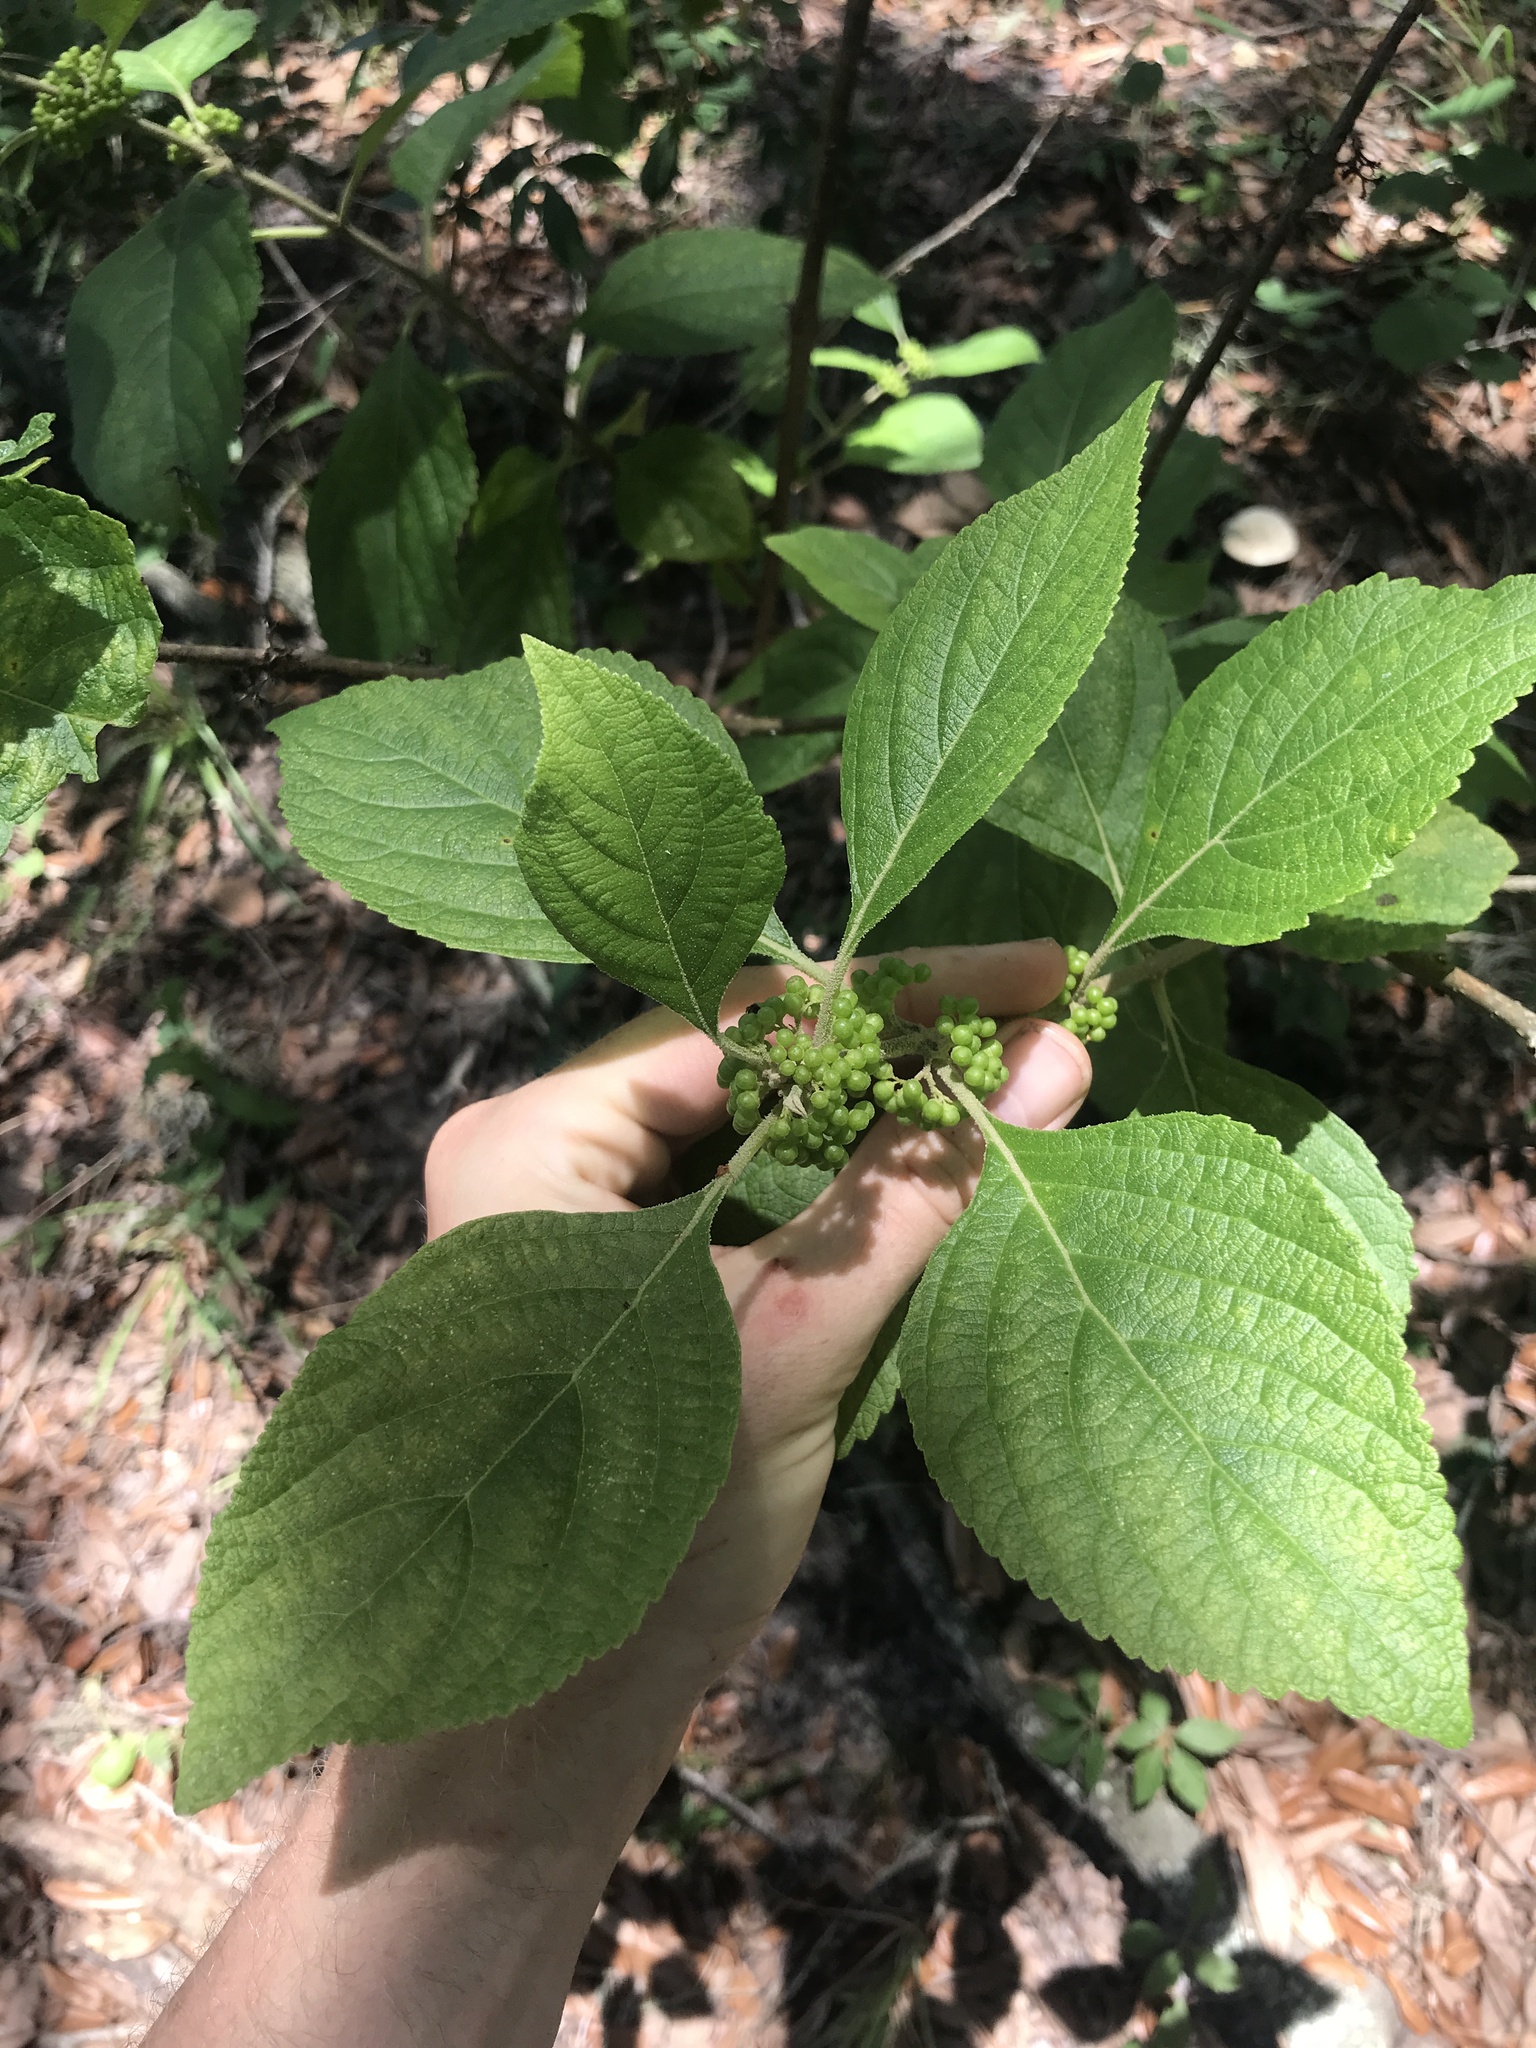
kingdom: Plantae
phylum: Tracheophyta
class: Magnoliopsida
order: Lamiales
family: Lamiaceae
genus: Callicarpa
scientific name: Callicarpa americana
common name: American beautyberry
